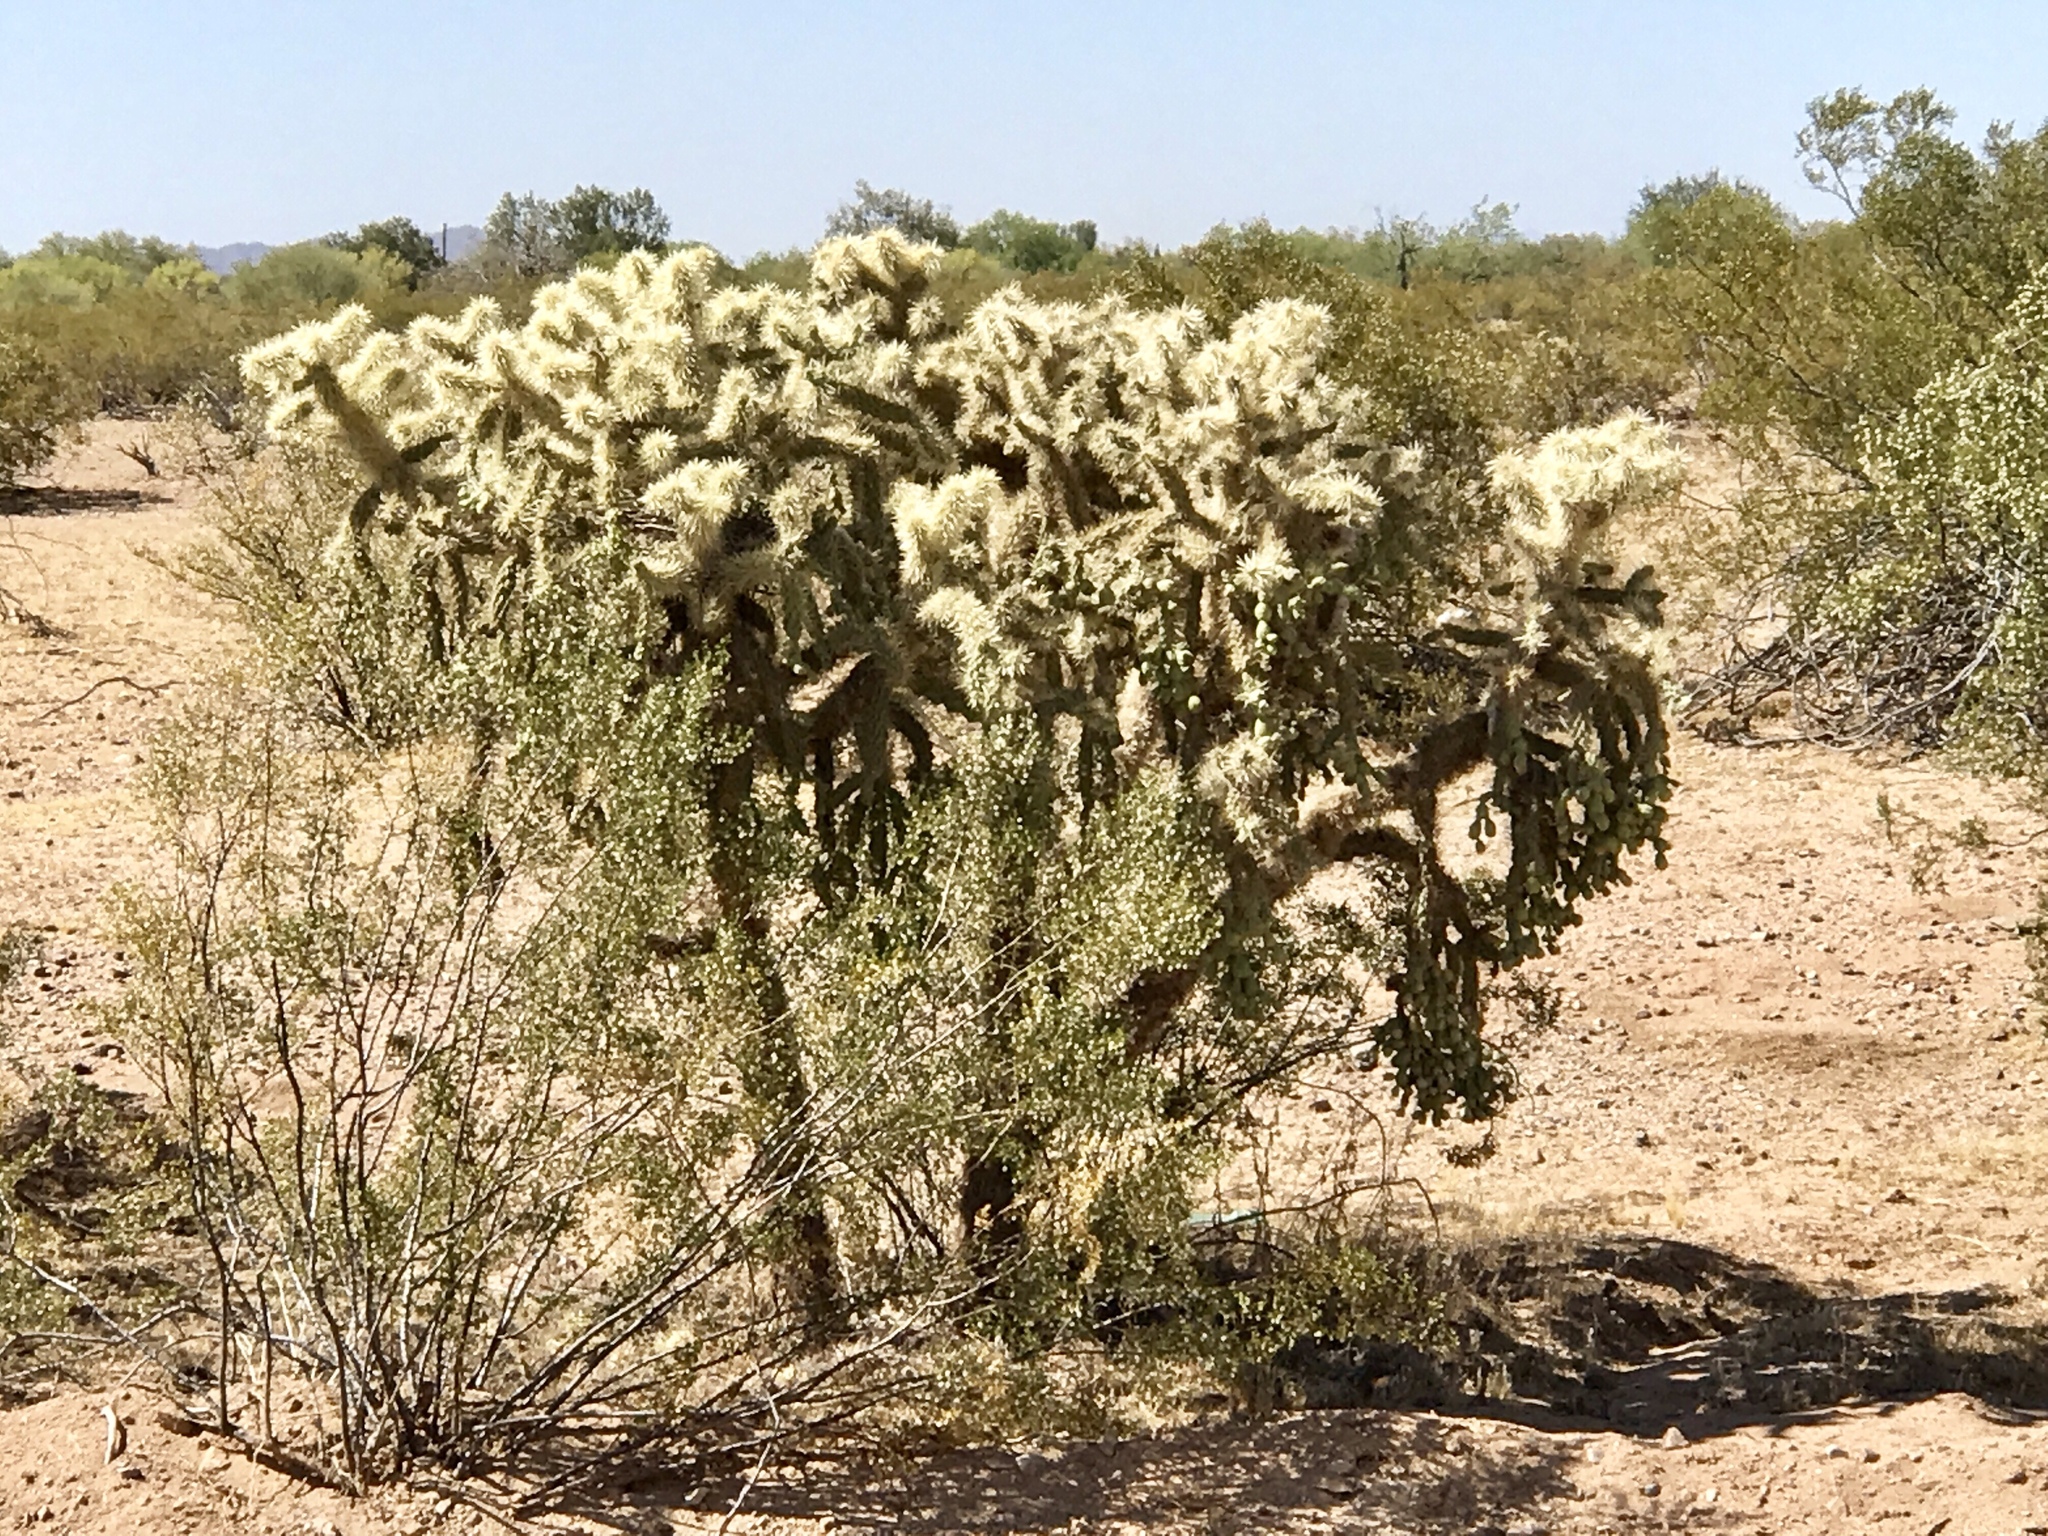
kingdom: Plantae
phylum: Tracheophyta
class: Magnoliopsida
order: Caryophyllales
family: Cactaceae
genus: Cylindropuntia
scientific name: Cylindropuntia fulgida
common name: Jumping cholla
